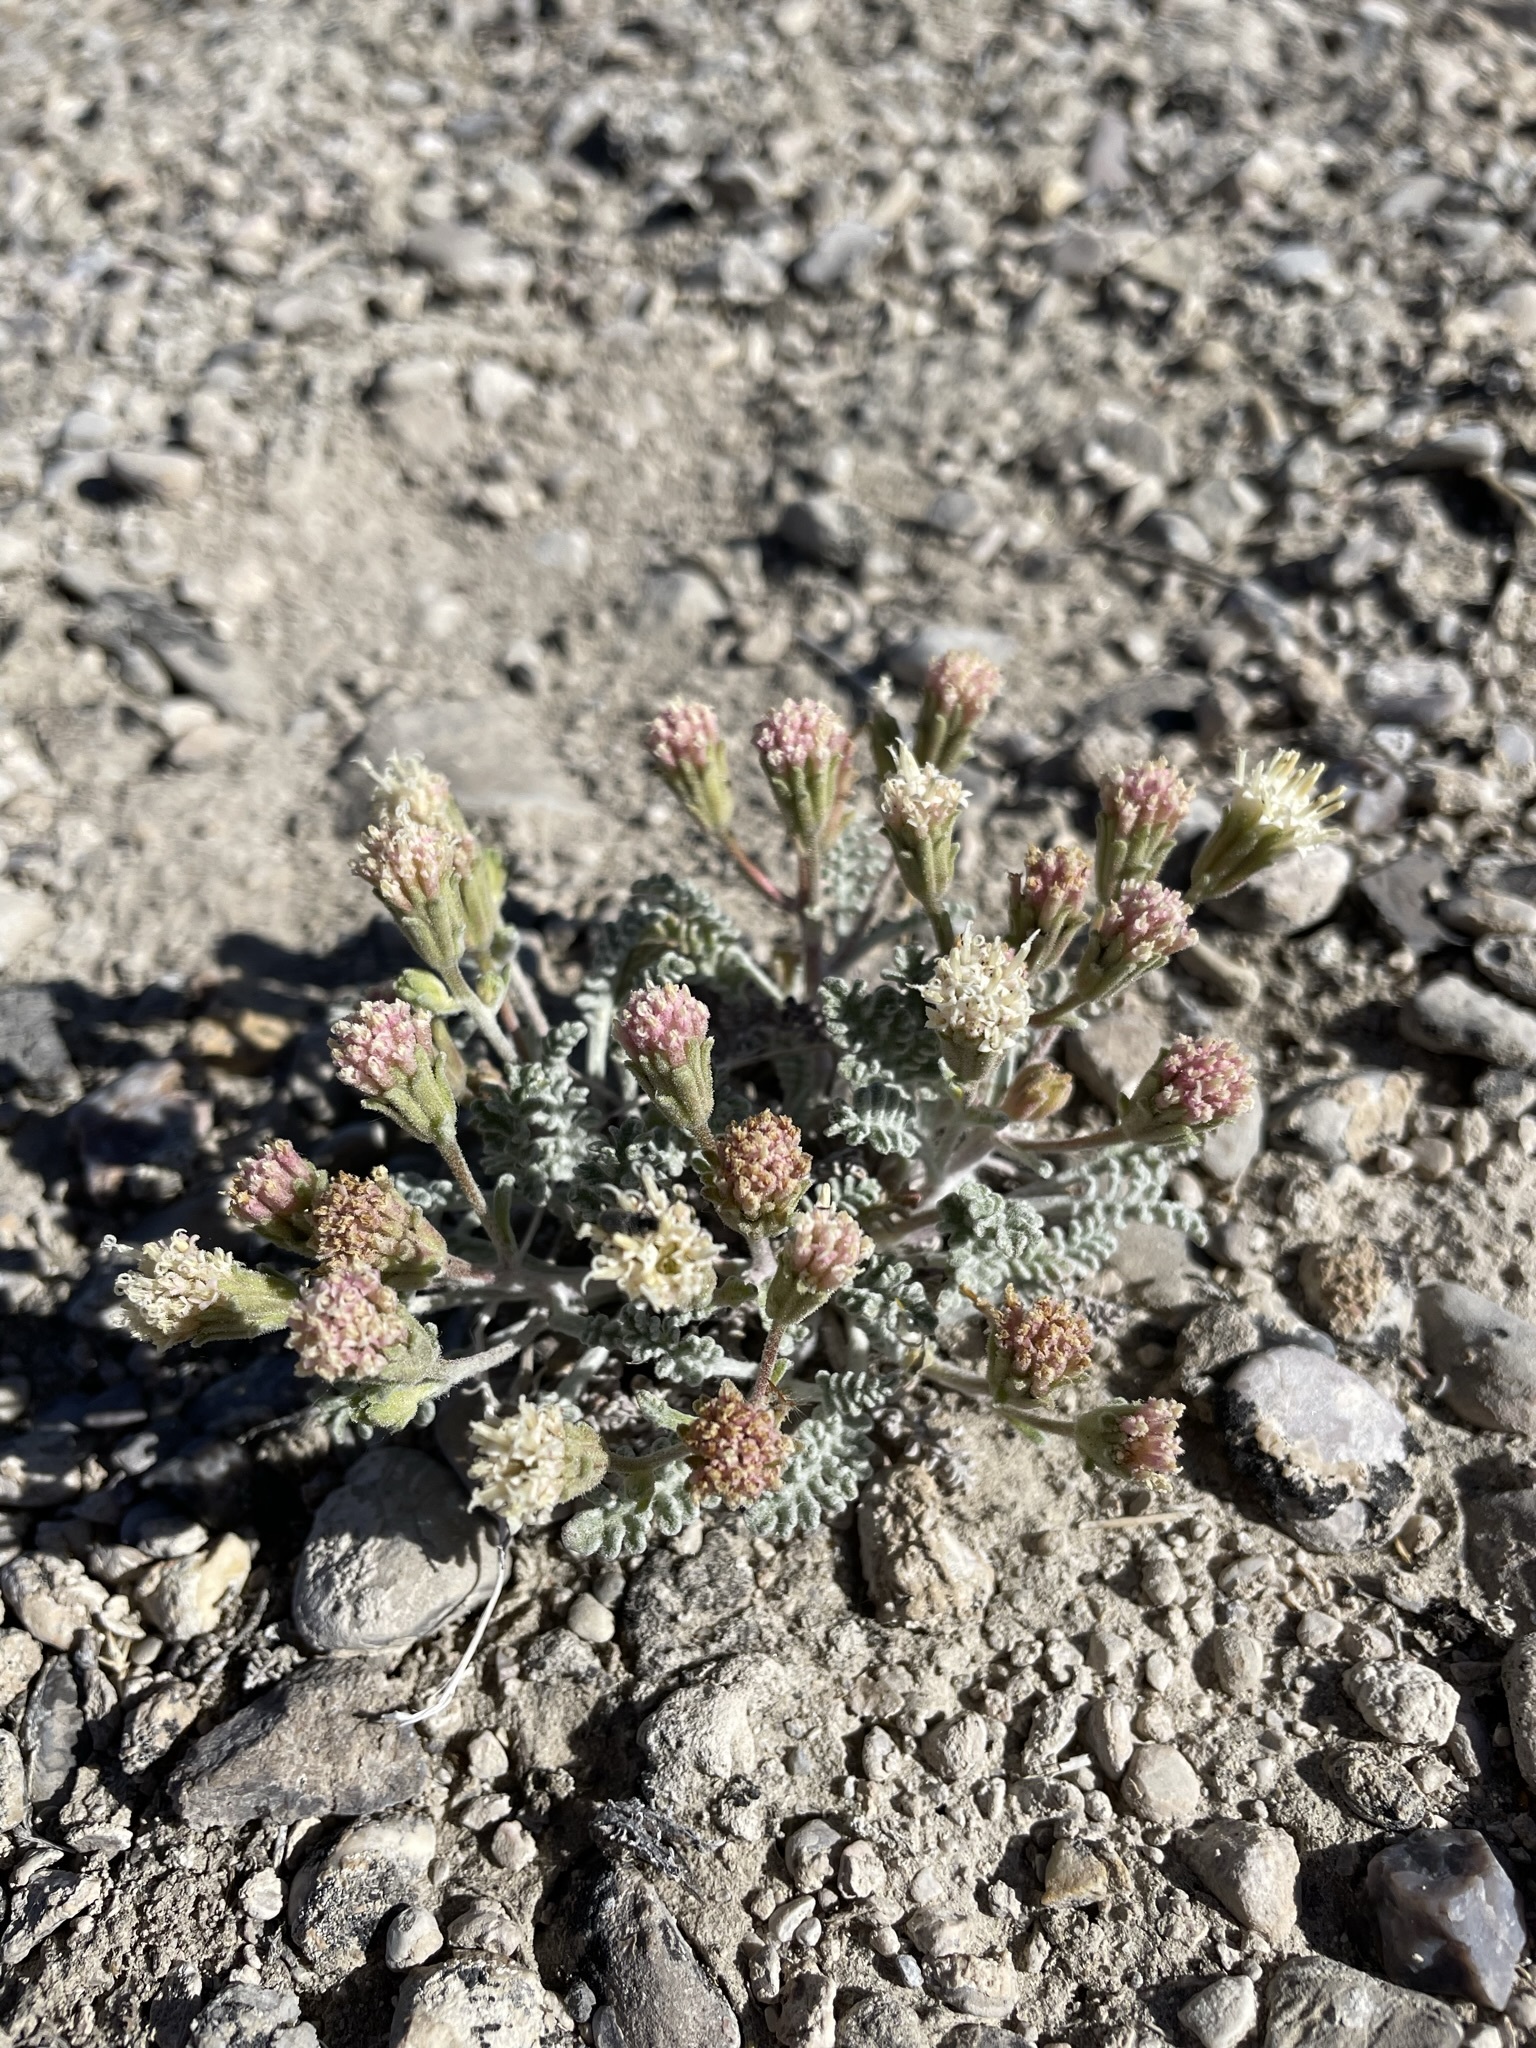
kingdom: Plantae
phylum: Tracheophyta
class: Magnoliopsida
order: Asterales
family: Asteraceae
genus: Chaenactis
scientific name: Chaenactis douglasii
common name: Hoary pincushion
